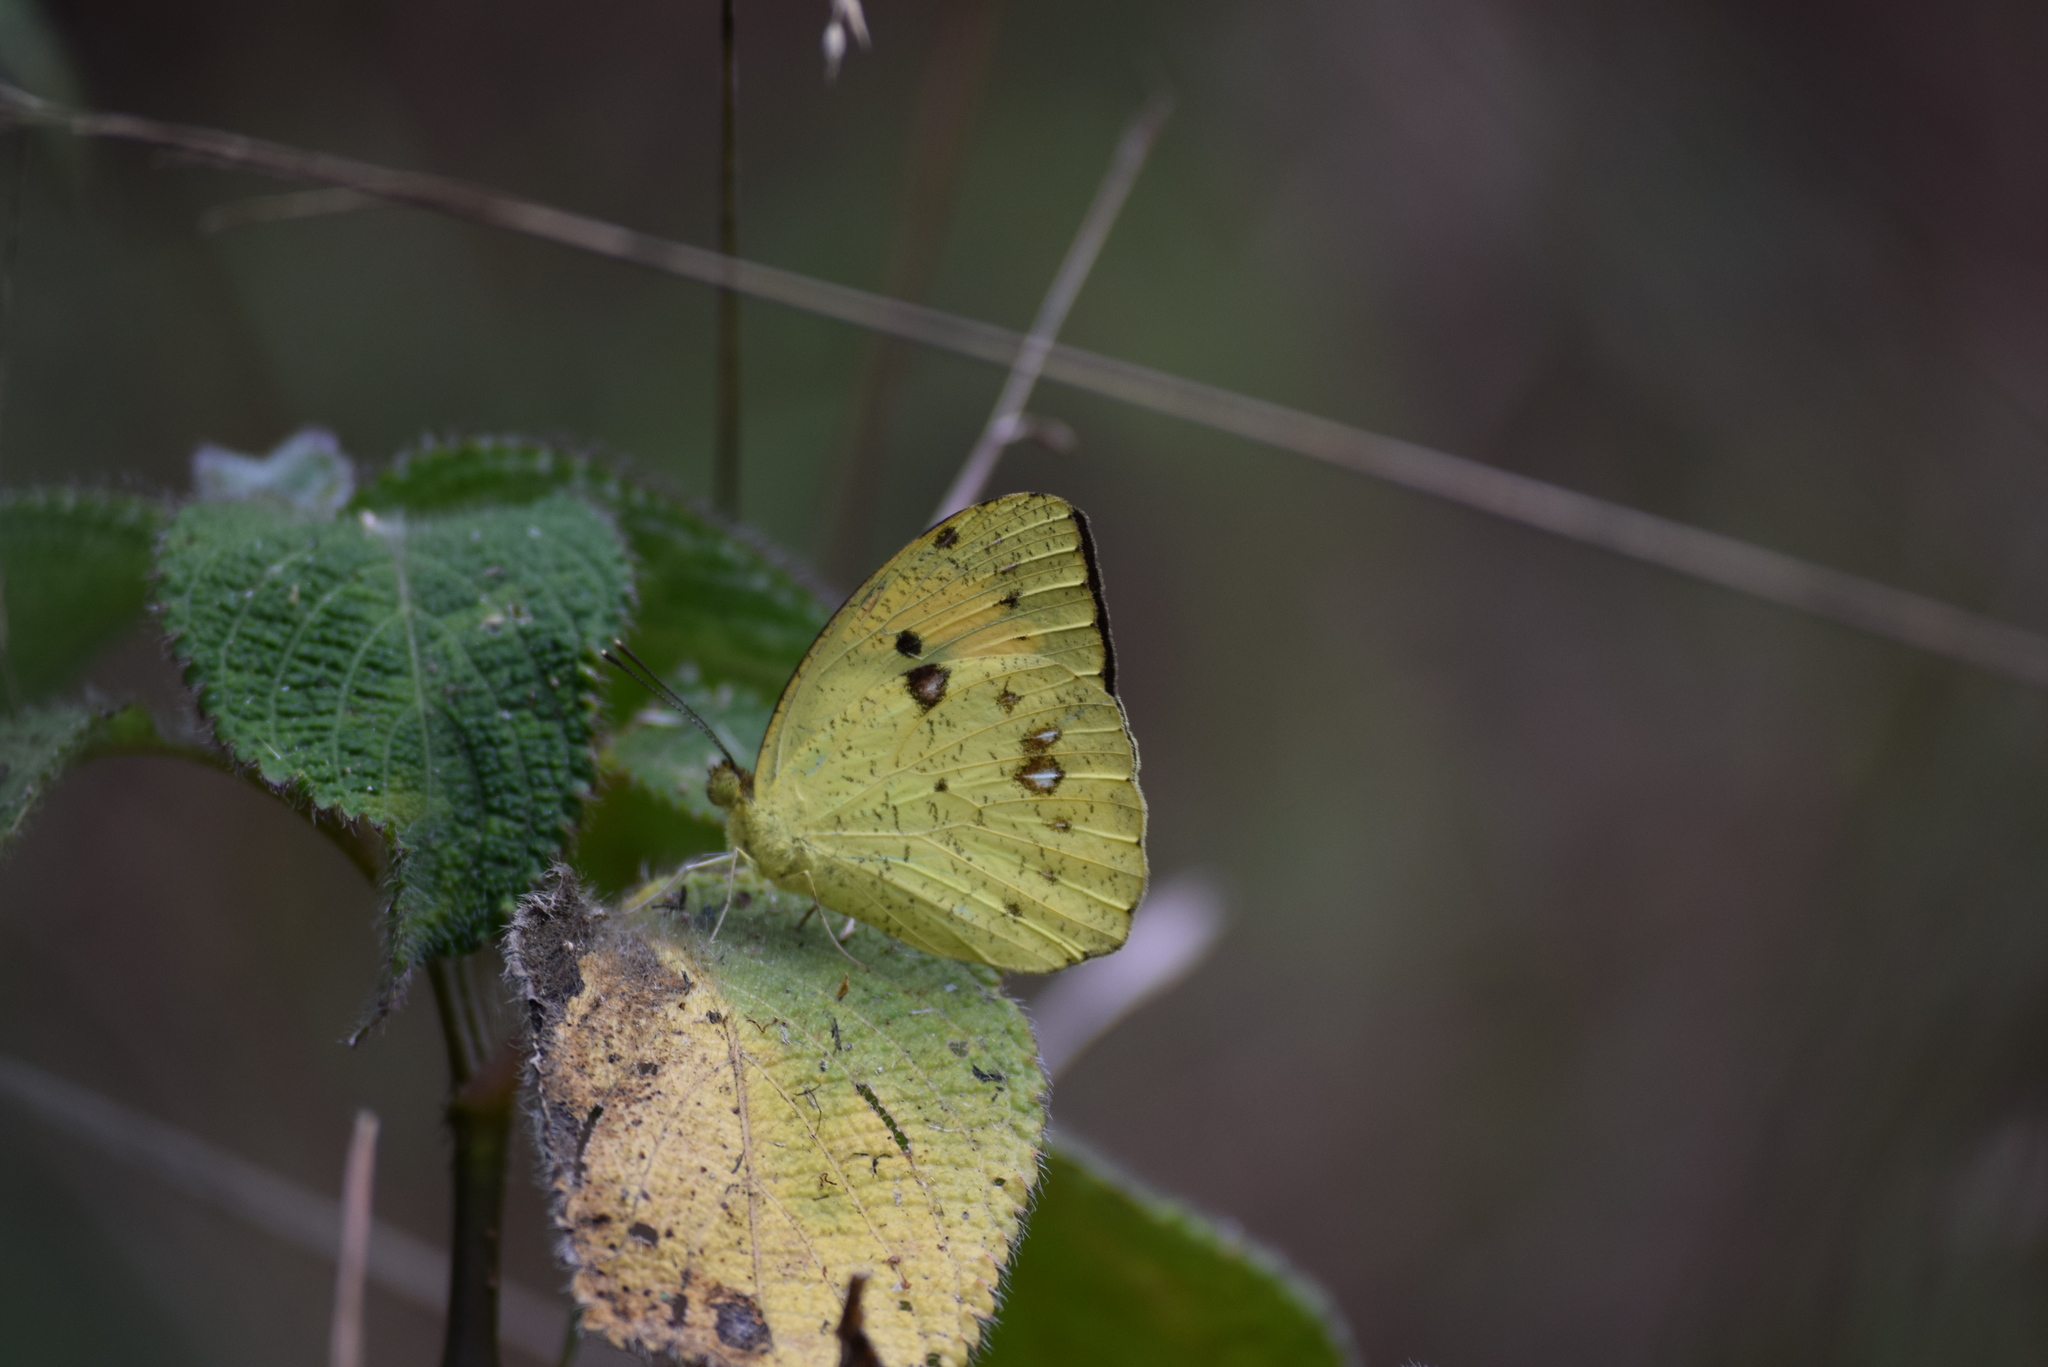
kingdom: Animalia
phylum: Arthropoda
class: Insecta
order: Lepidoptera
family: Pieridae
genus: Ixias
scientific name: Ixias pyrene
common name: Yellow orange tip
